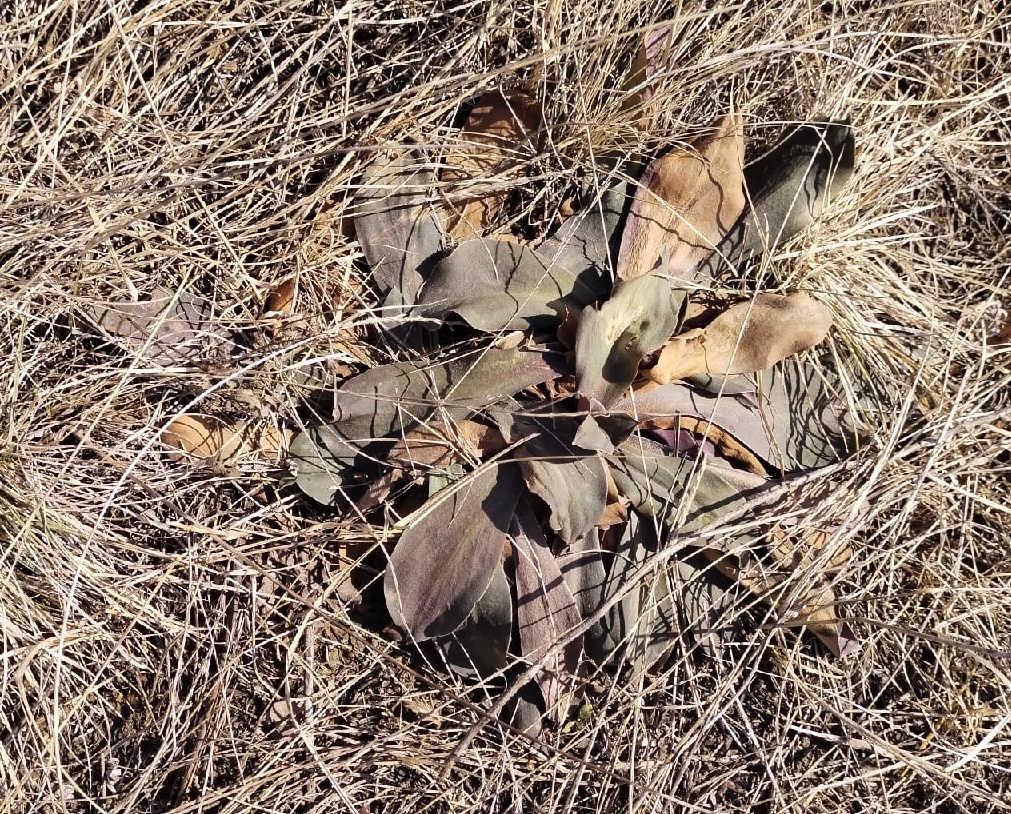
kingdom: Plantae
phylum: Tracheophyta
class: Magnoliopsida
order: Caryophyllales
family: Plumbaginaceae
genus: Goniolimon
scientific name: Goniolimon speciosum
